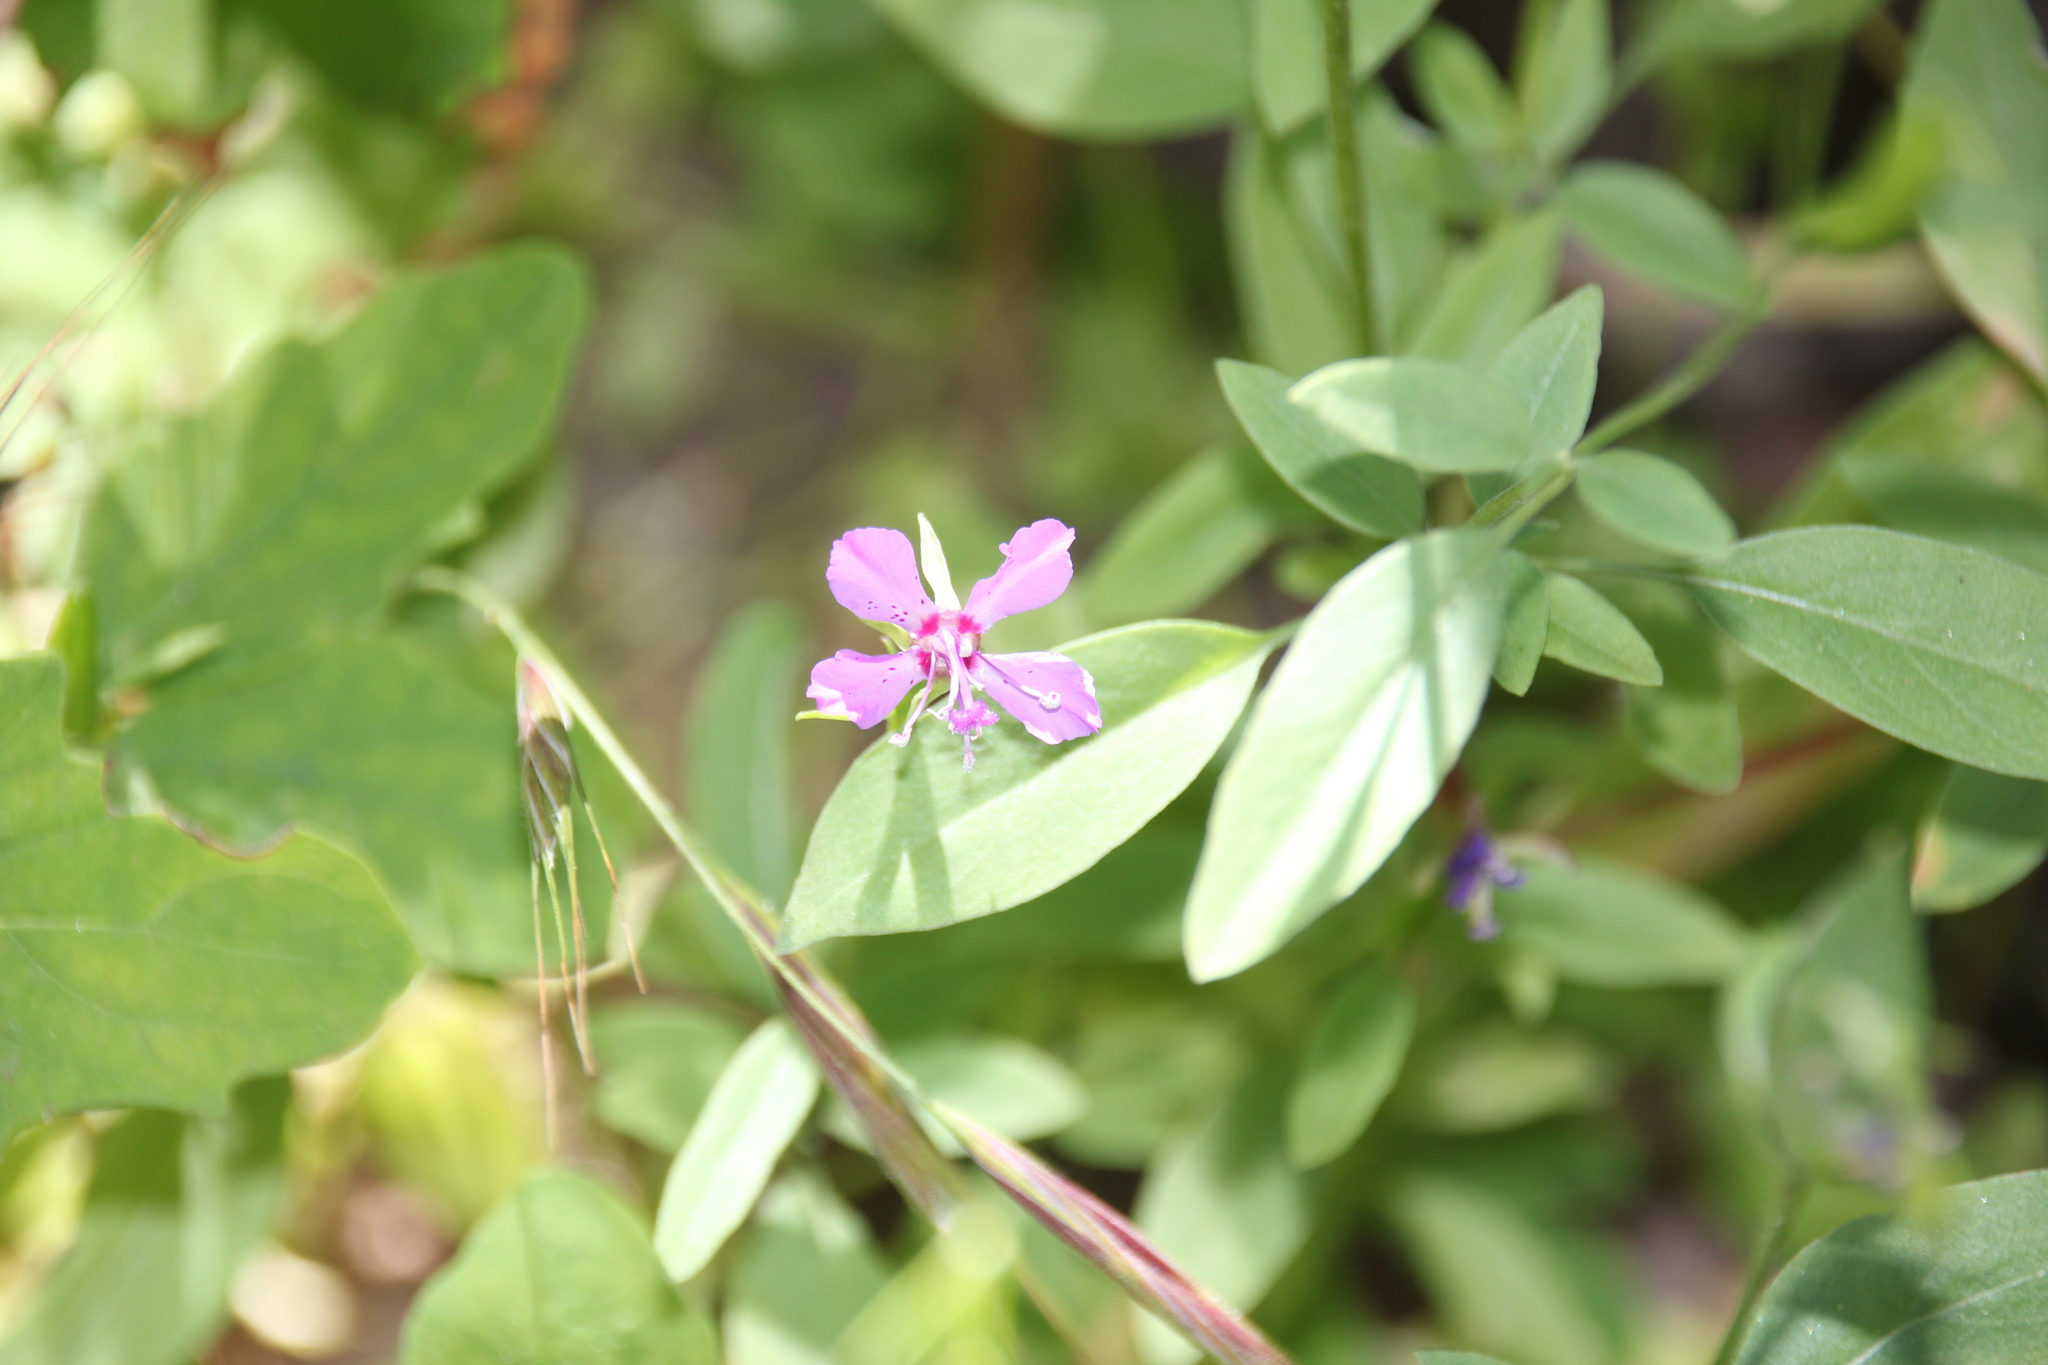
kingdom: Plantae
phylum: Tracheophyta
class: Magnoliopsida
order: Myrtales
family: Onagraceae
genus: Clarkia
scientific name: Clarkia rhomboidea
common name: Broadleaf clarkia
